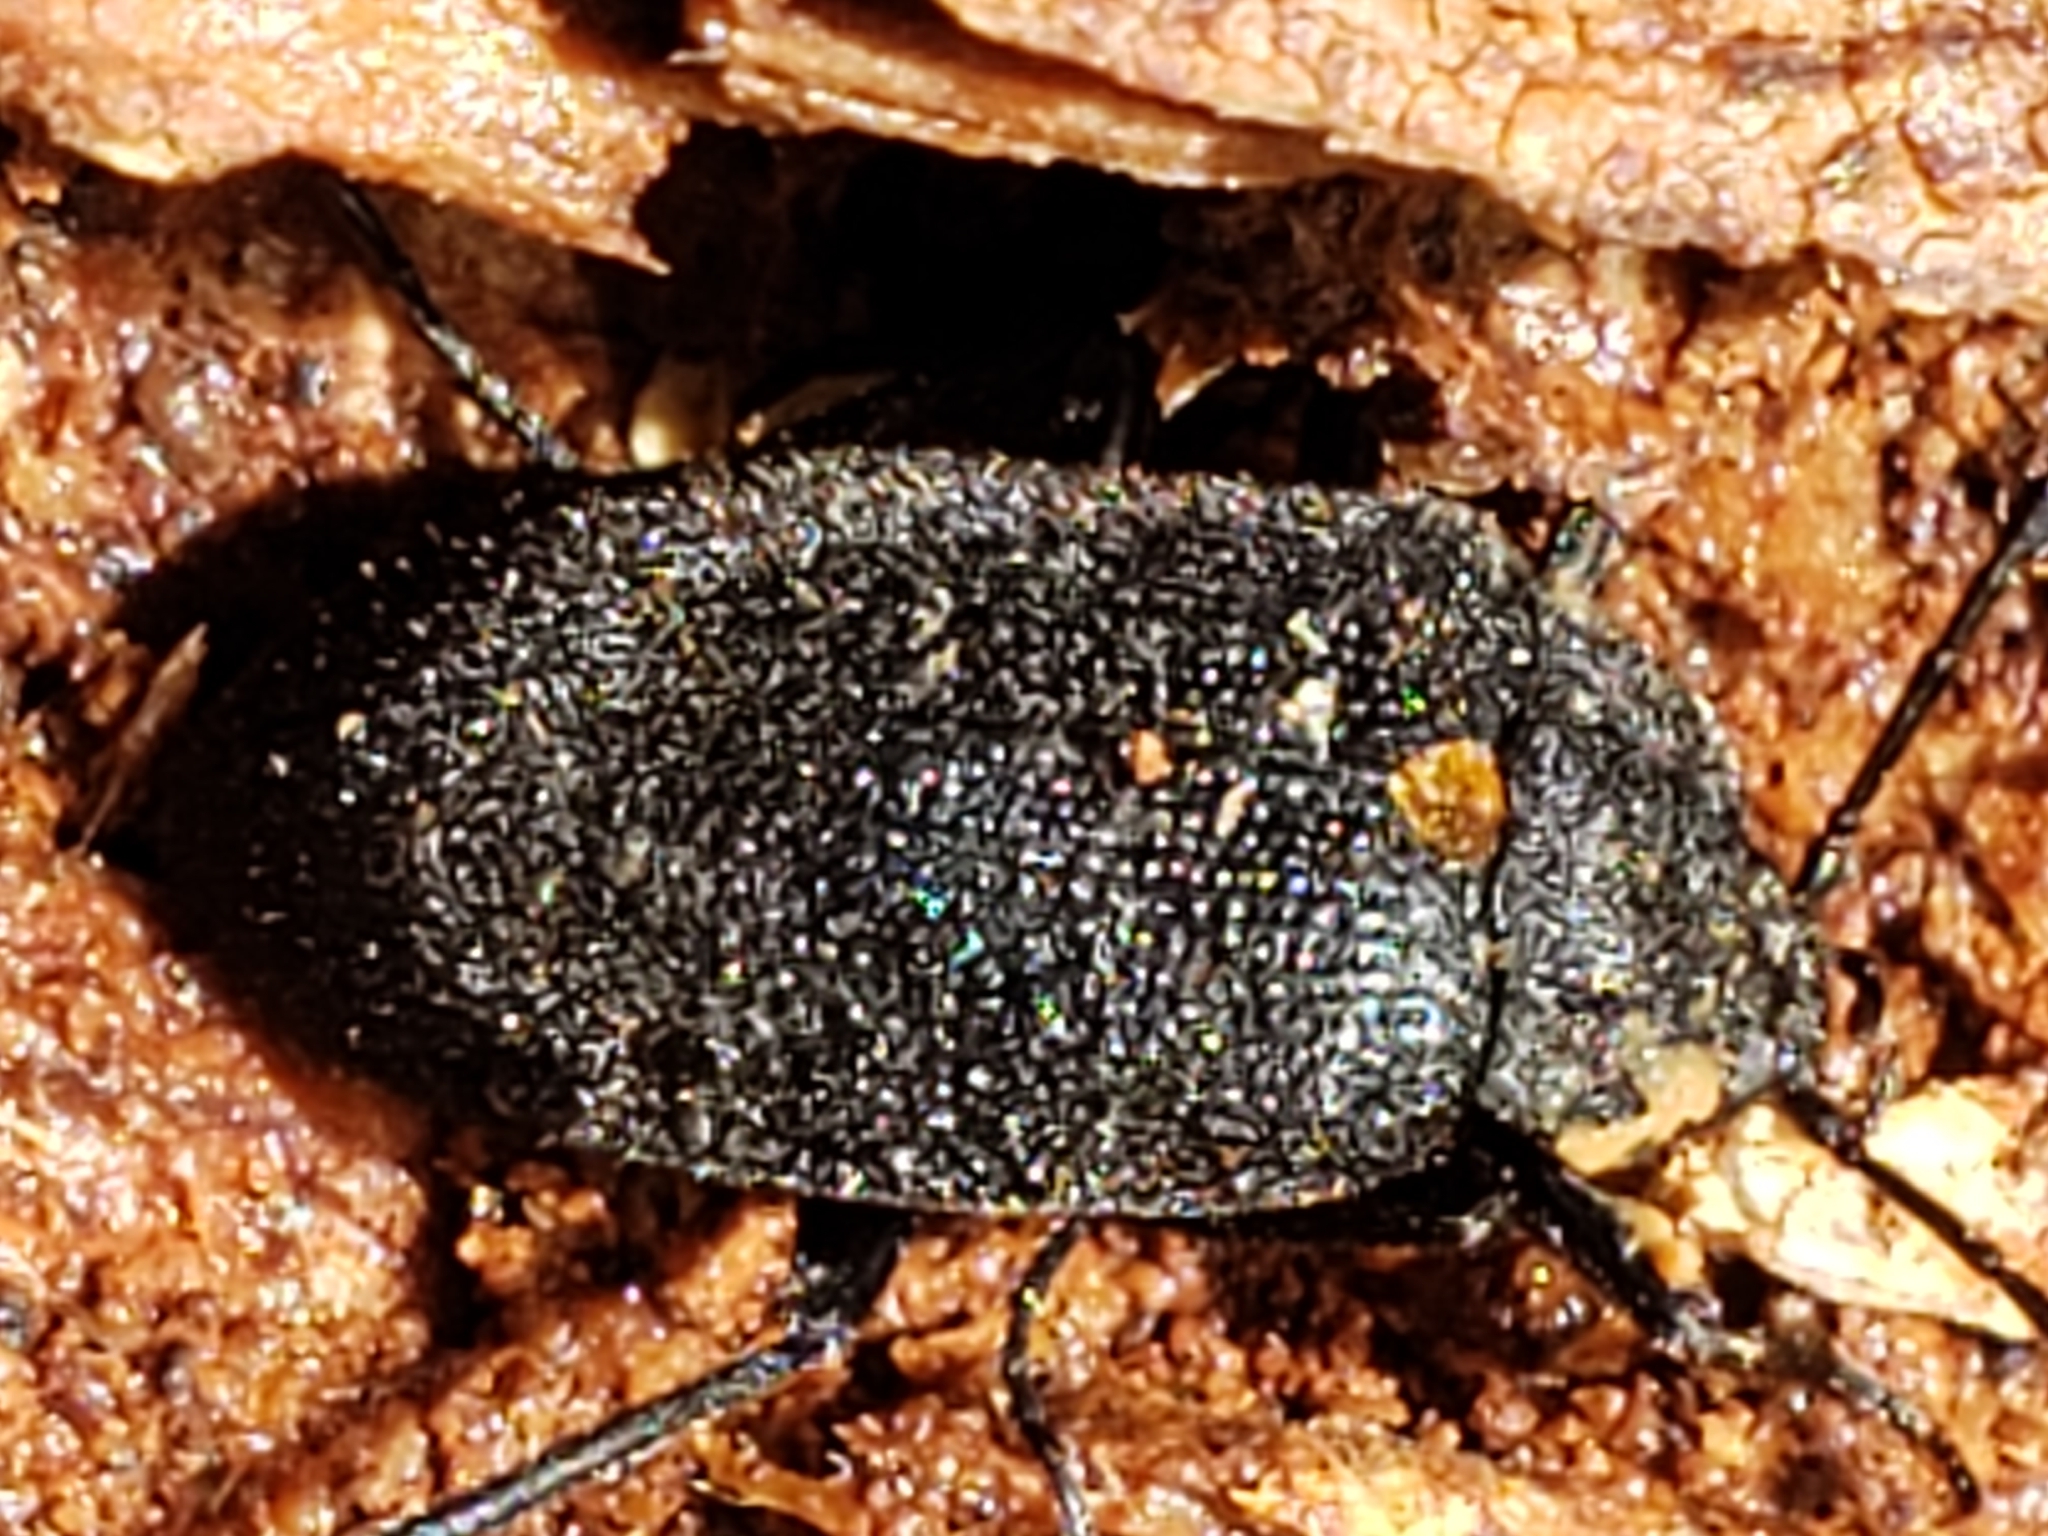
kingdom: Animalia
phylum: Arthropoda
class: Insecta
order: Coleoptera
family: Tetratomidae
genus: Penthe
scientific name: Penthe obliquata
